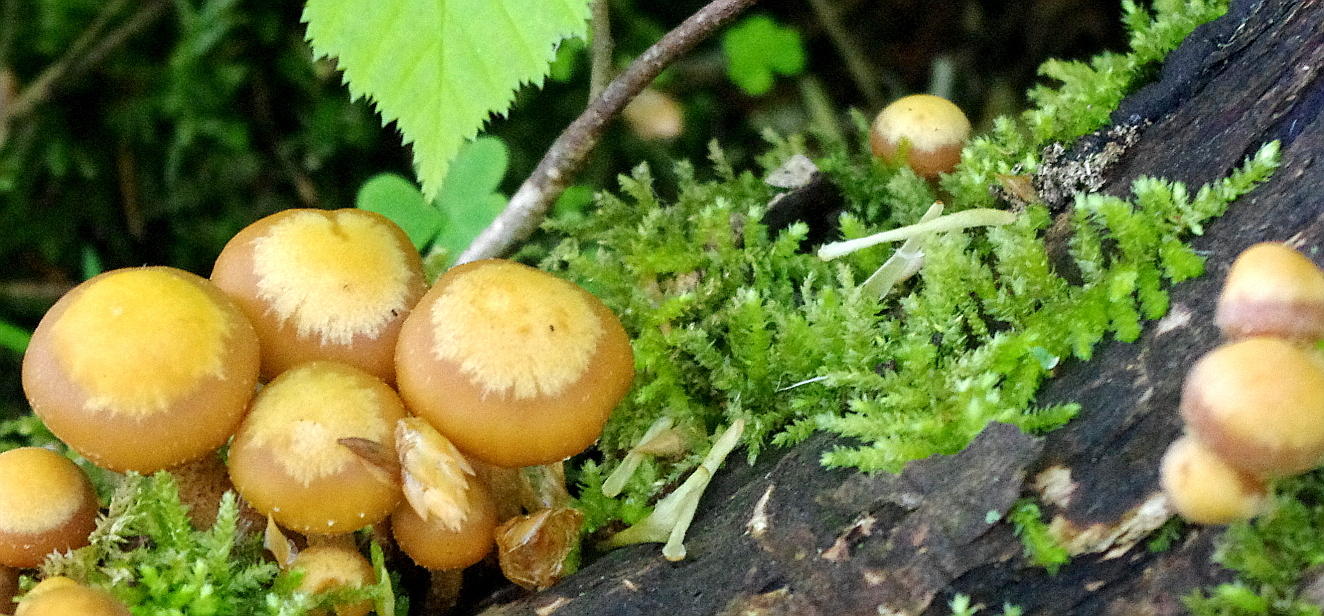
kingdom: Fungi
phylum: Basidiomycota
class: Agaricomycetes
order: Agaricales
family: Strophariaceae
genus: Kuehneromyces
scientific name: Kuehneromyces mutabilis
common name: Sheathed woodtuft
